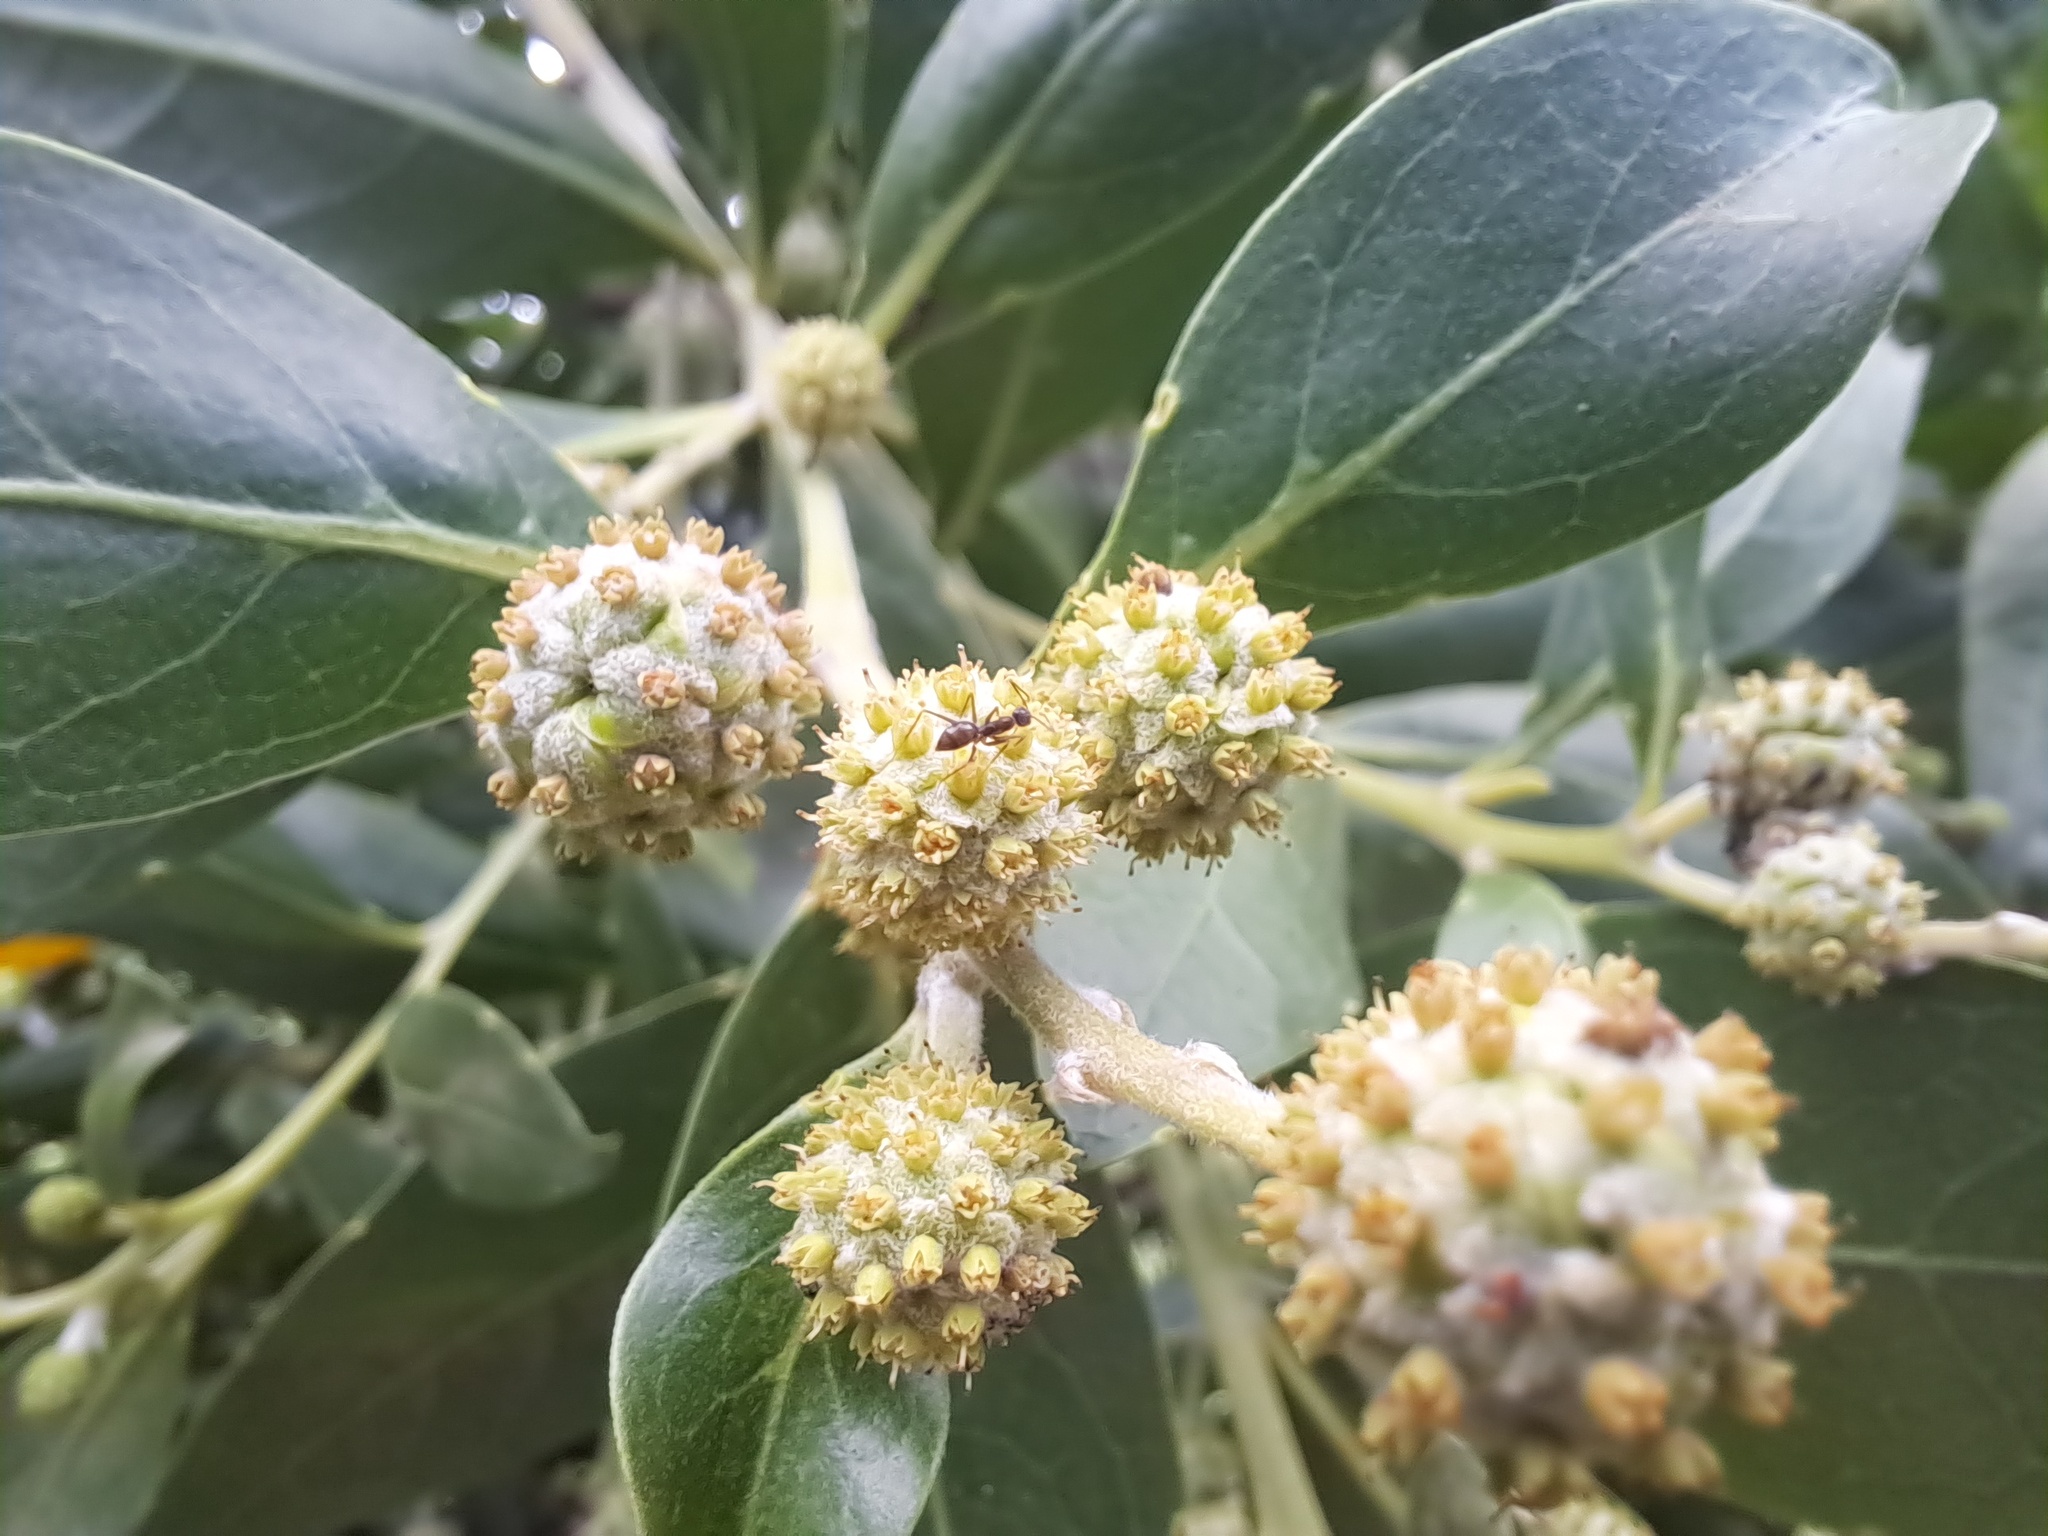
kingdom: Animalia
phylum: Arthropoda
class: Insecta
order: Hymenoptera
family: Formicidae
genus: Paratrechina
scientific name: Paratrechina longicornis
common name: Longhorned crazy ant
